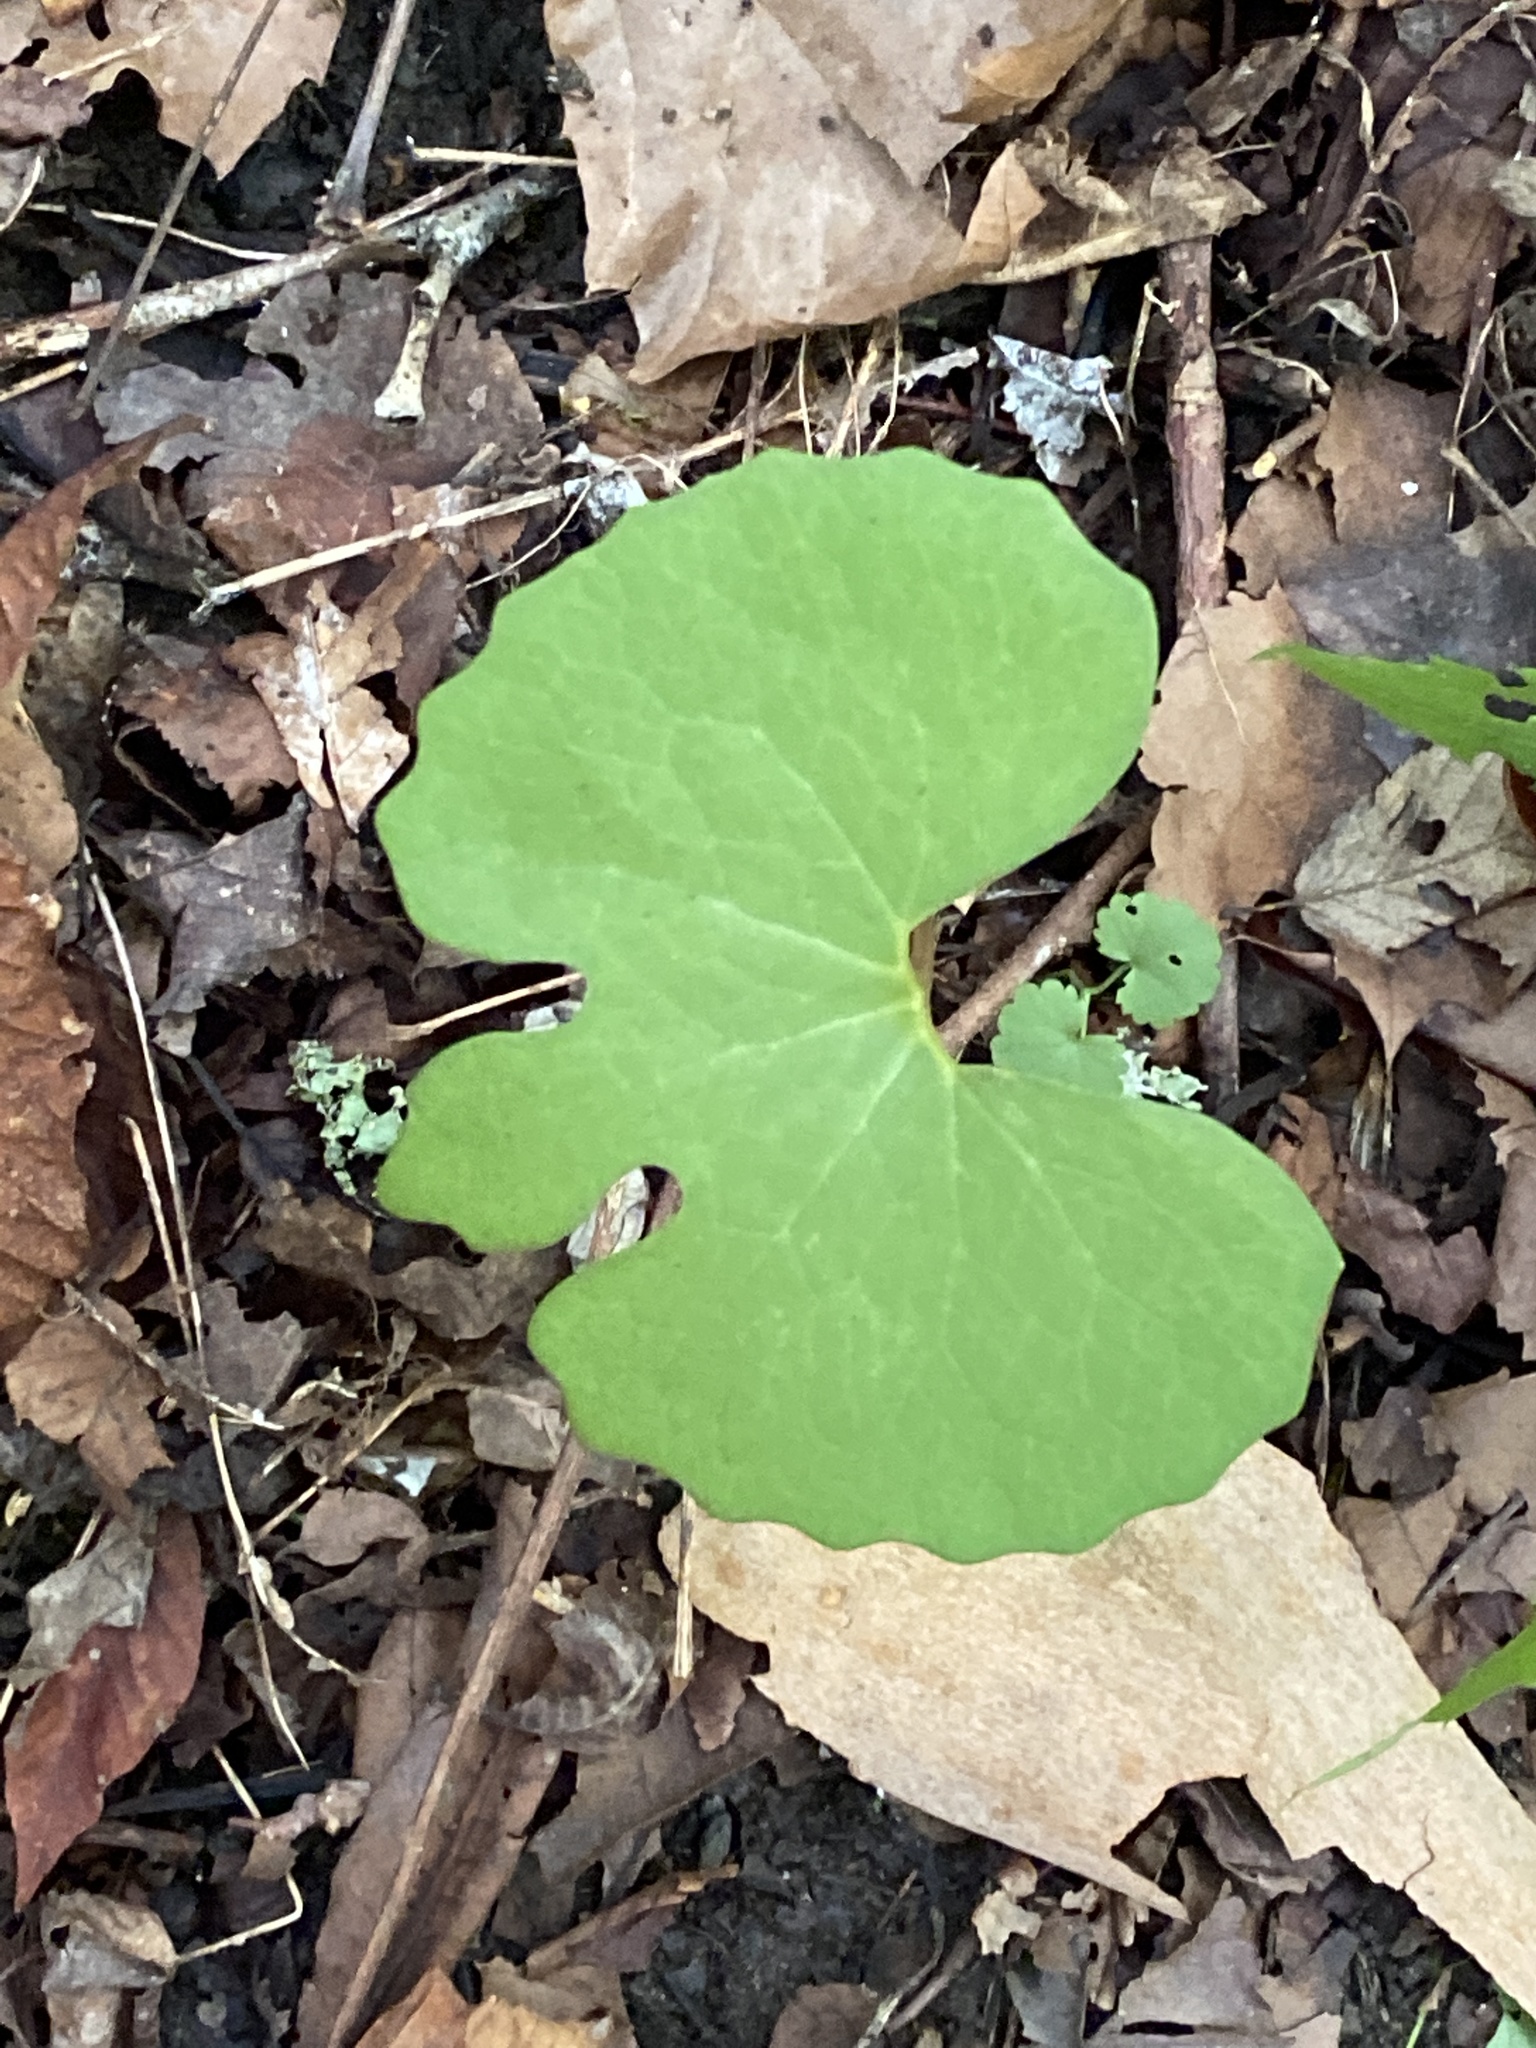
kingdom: Plantae
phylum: Tracheophyta
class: Magnoliopsida
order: Ranunculales
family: Papaveraceae
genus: Sanguinaria
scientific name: Sanguinaria canadensis
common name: Bloodroot
